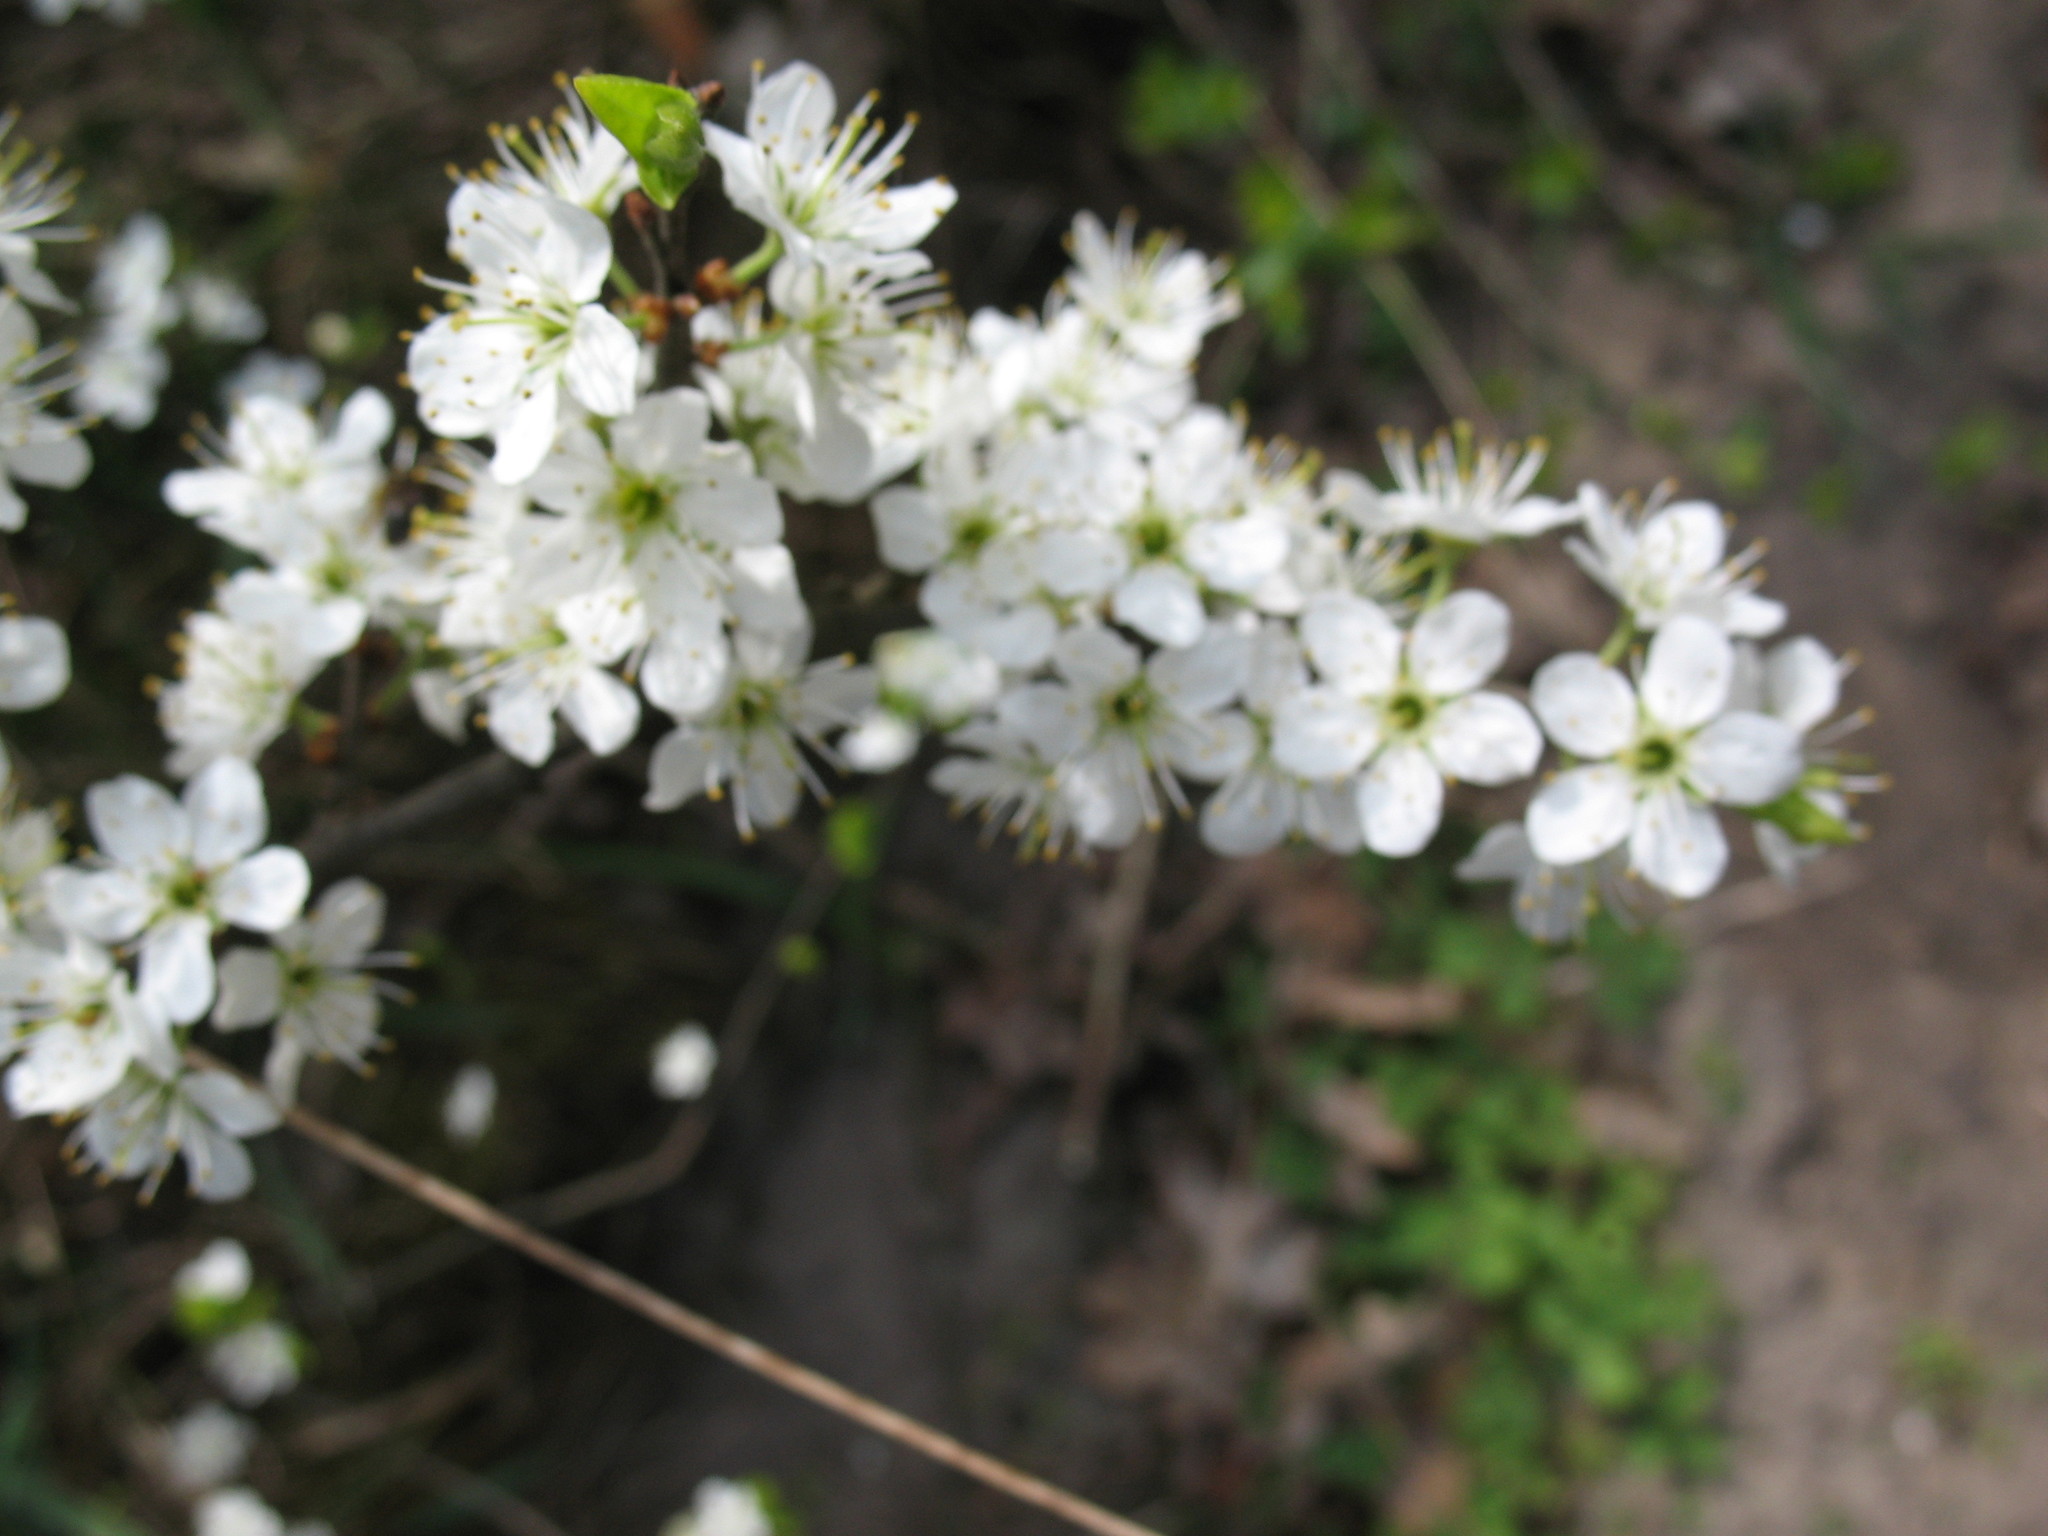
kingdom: Plantae
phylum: Tracheophyta
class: Magnoliopsida
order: Rosales
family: Rosaceae
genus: Prunus
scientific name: Prunus spinosa
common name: Blackthorn
